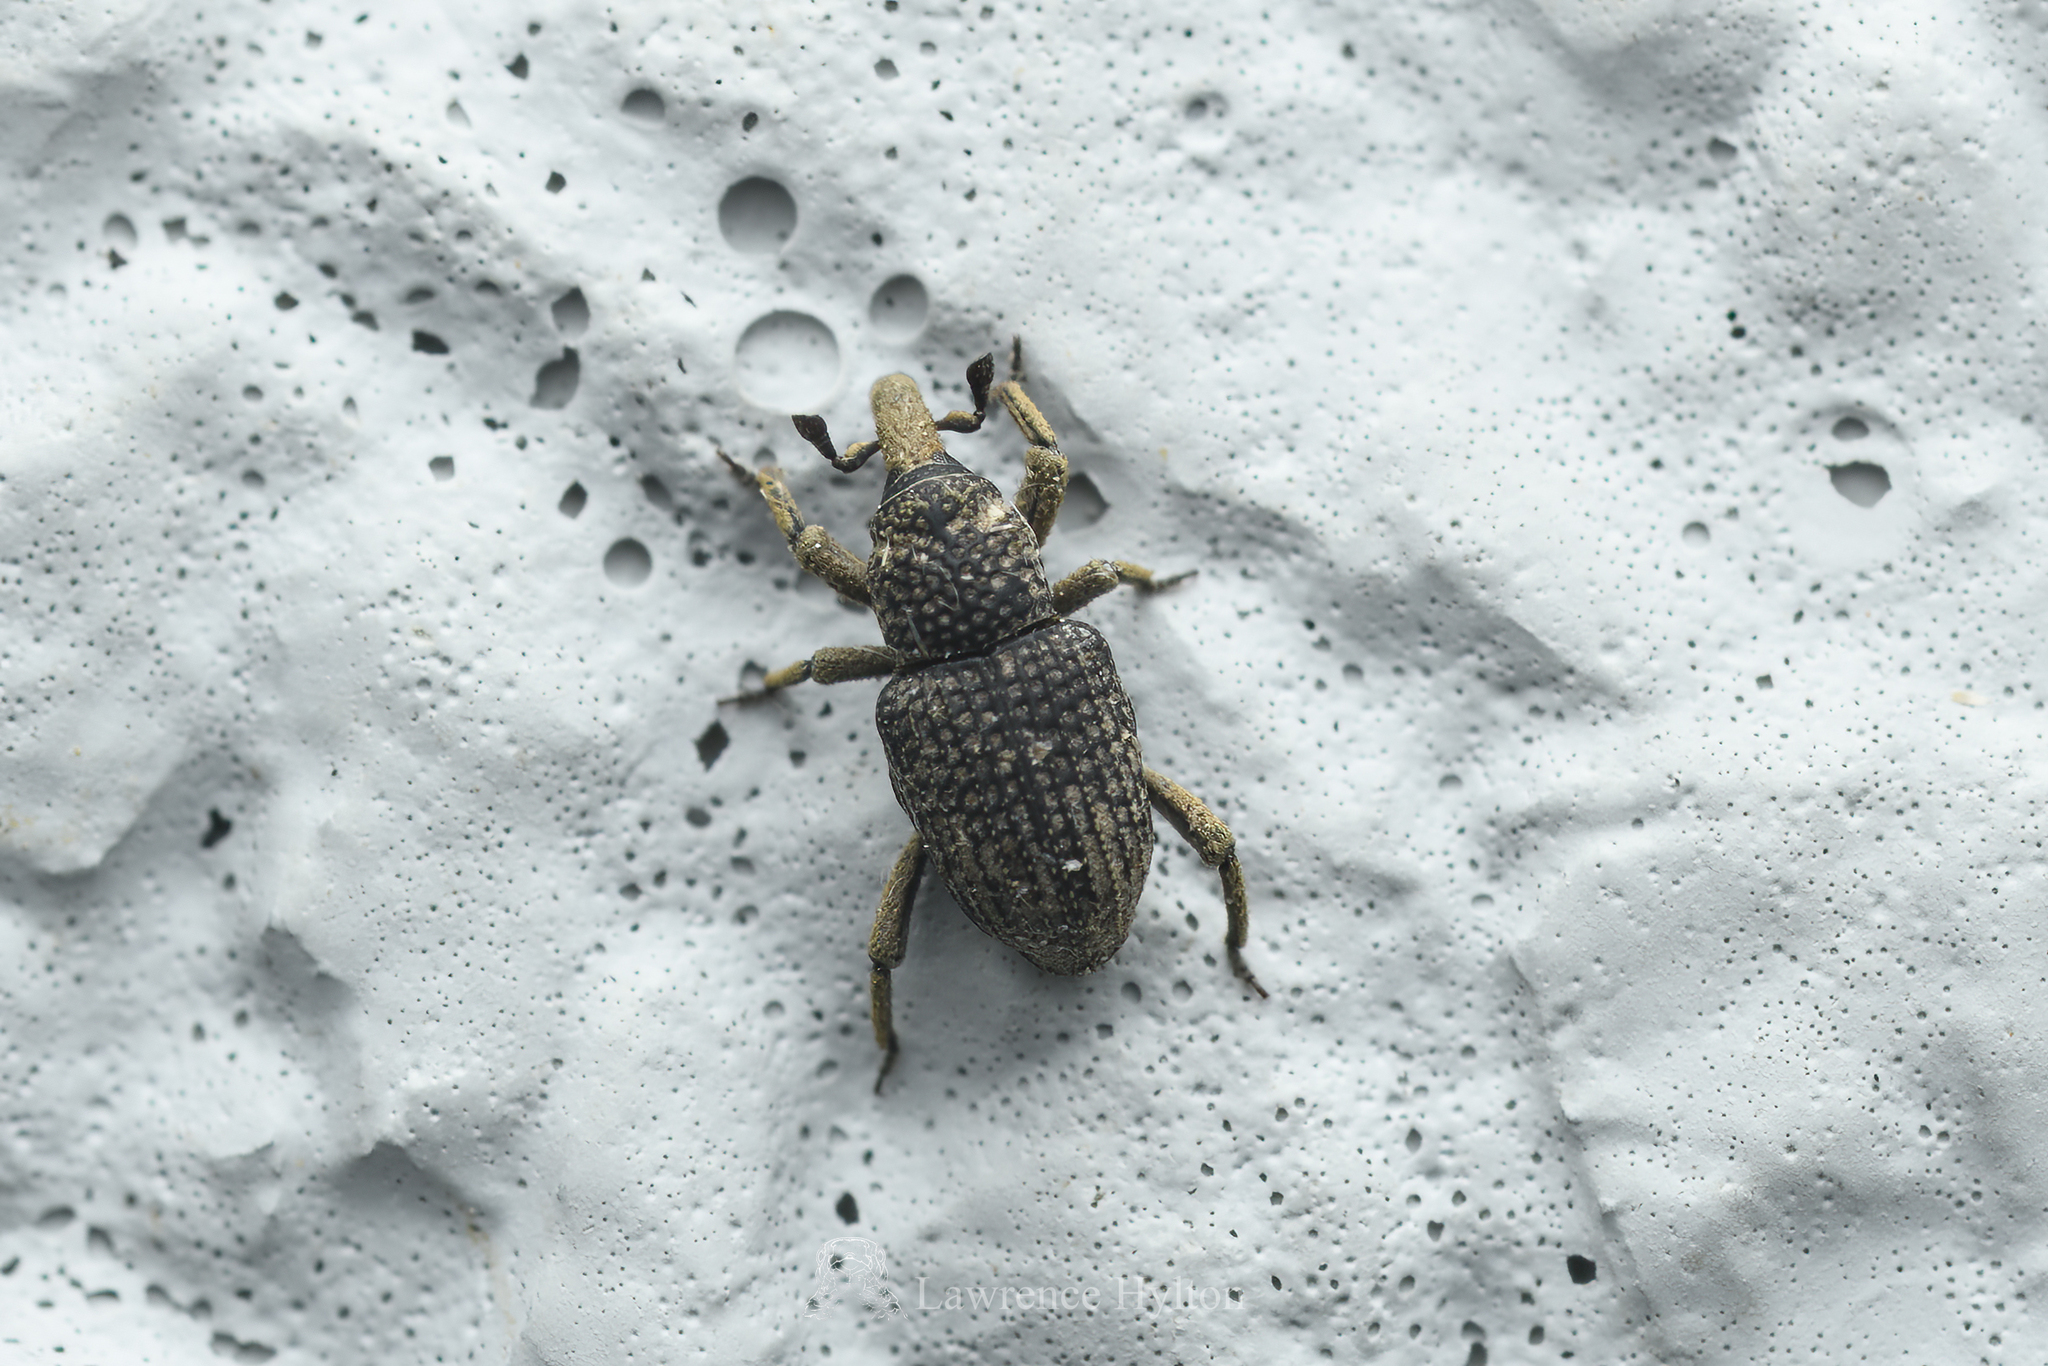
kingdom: Animalia
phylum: Arthropoda
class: Insecta
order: Coleoptera
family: Dryophthoridae
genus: Allaeotes
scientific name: Allaeotes niger
